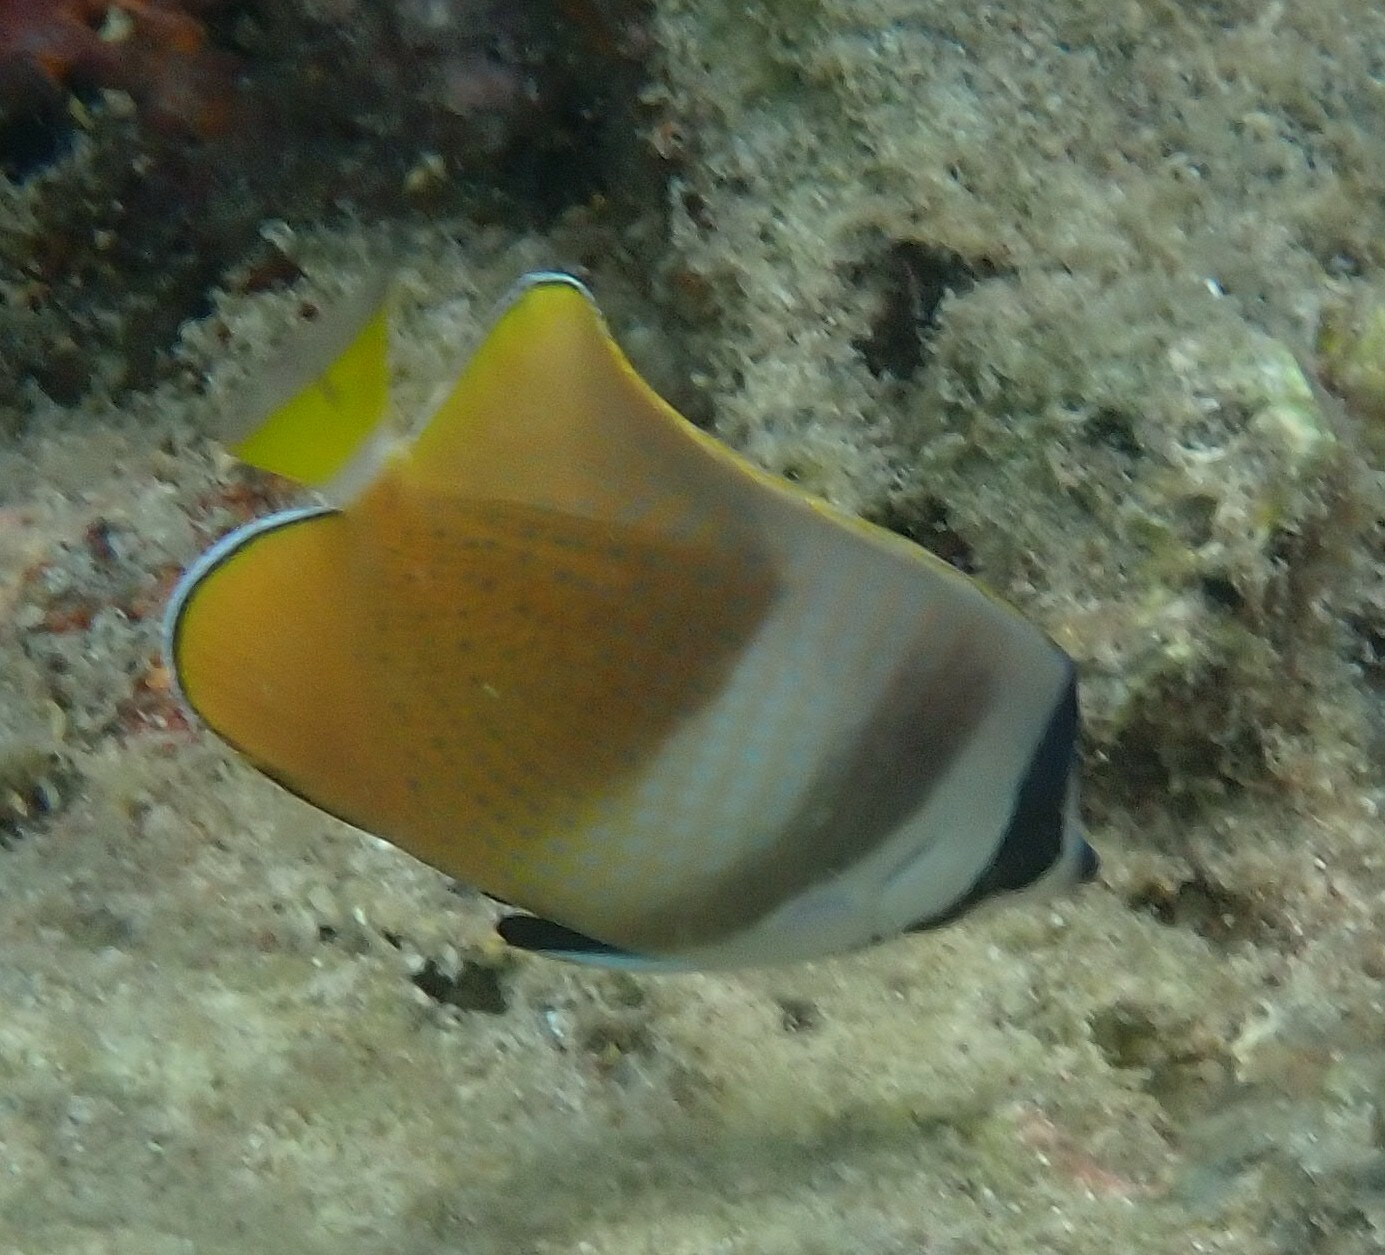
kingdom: Animalia
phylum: Chordata
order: Perciformes
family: Chaetodontidae
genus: Chaetodon
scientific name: Chaetodon kleinii
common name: Klein's butterflyfish
